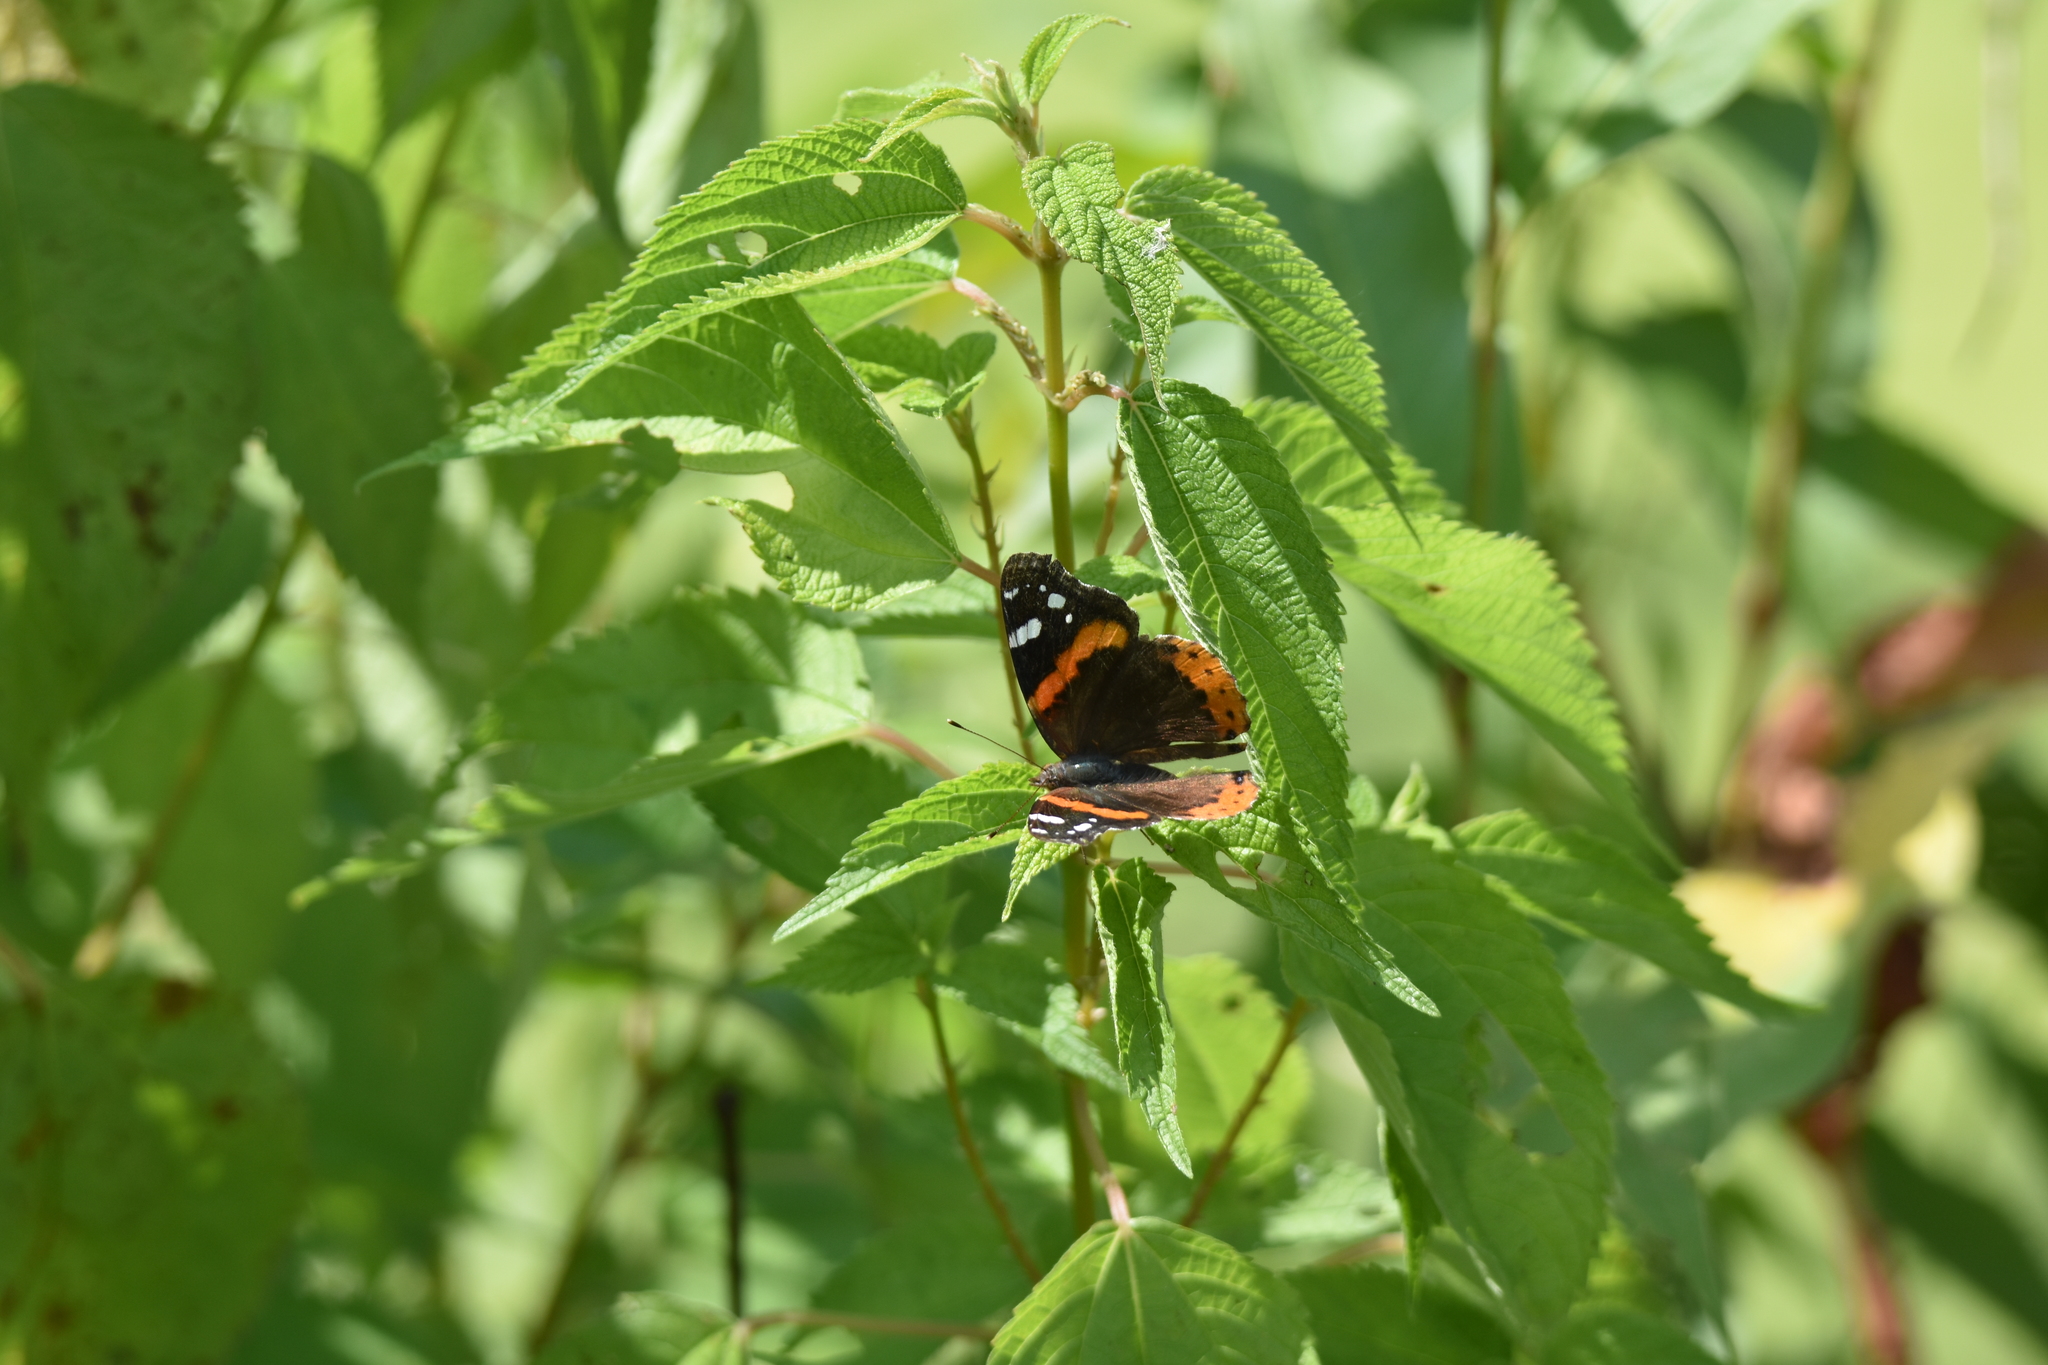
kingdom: Animalia
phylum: Arthropoda
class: Insecta
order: Lepidoptera
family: Nymphalidae
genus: Vanessa
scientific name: Vanessa atalanta
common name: Red admiral
